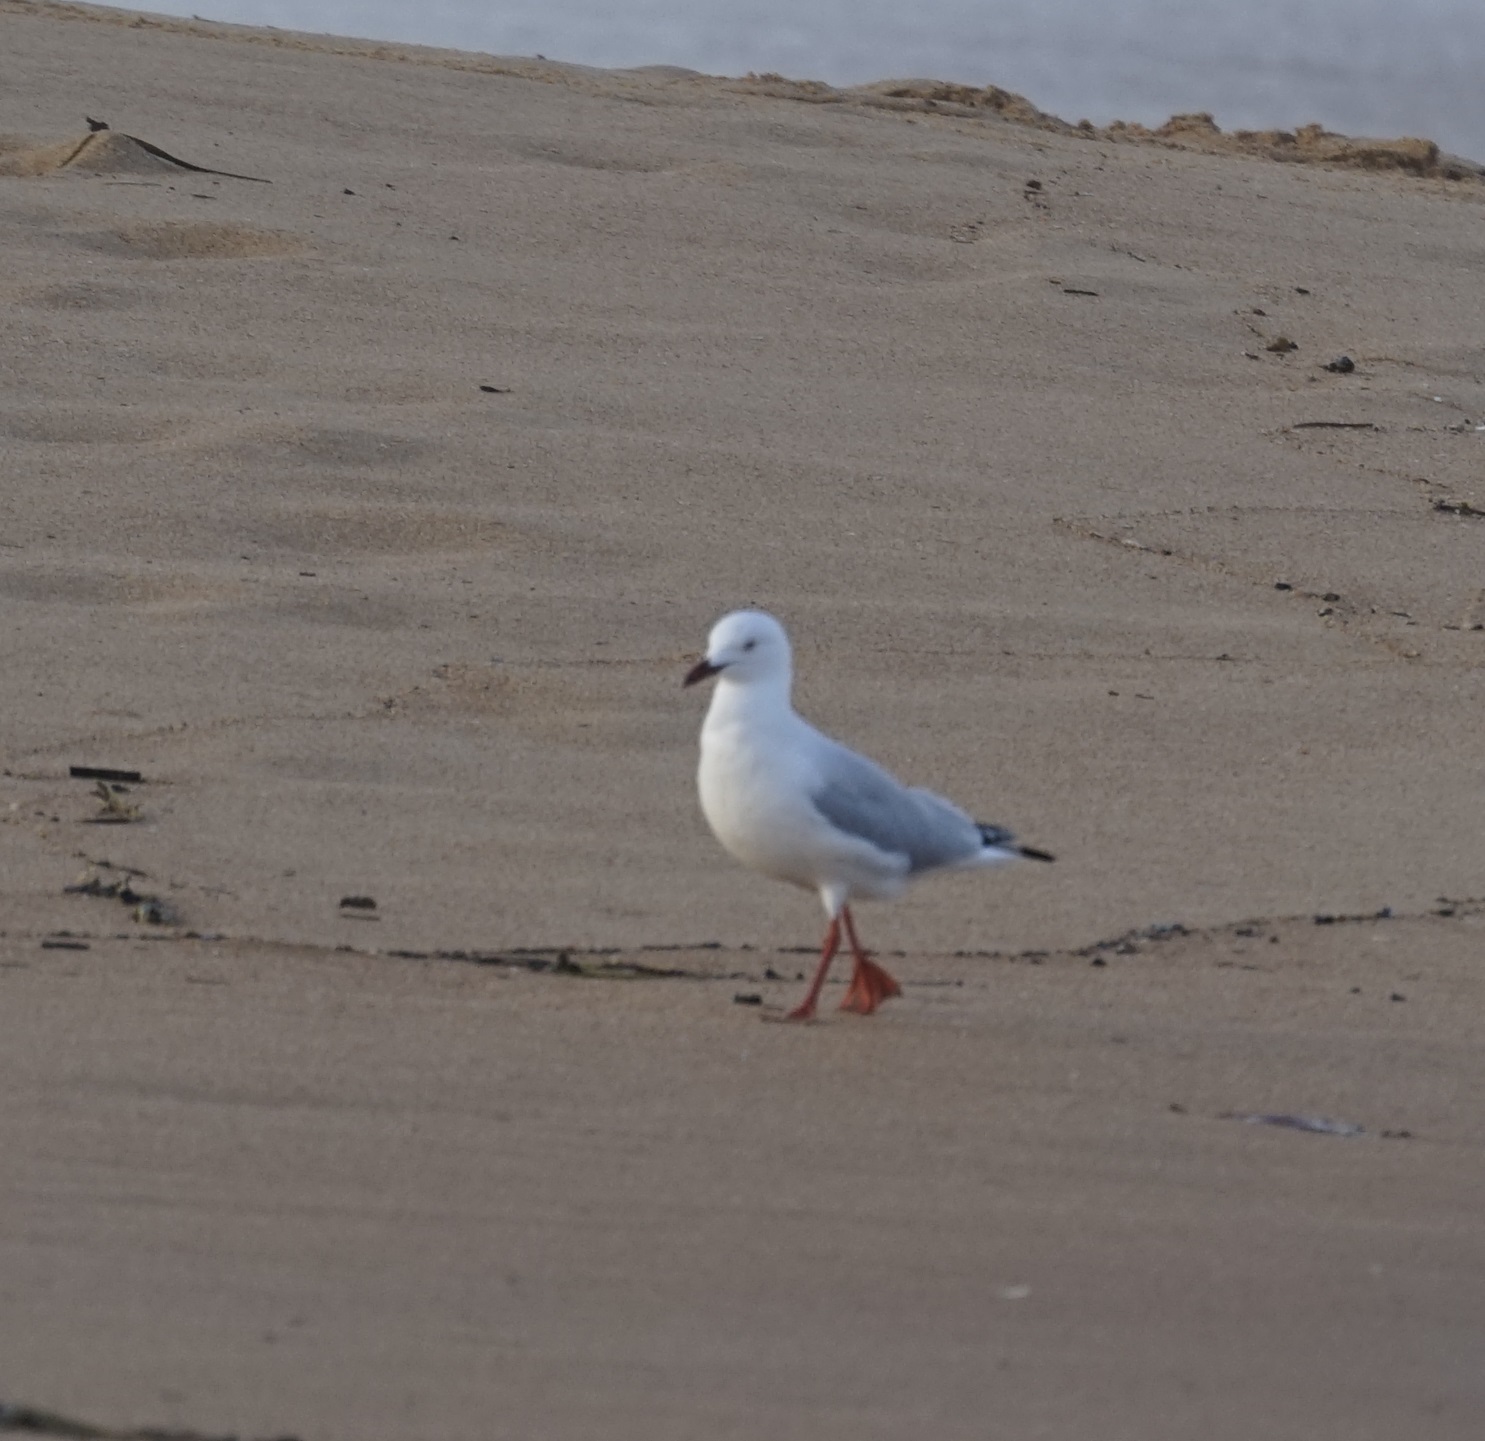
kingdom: Animalia
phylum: Chordata
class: Aves
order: Charadriiformes
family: Laridae
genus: Chroicocephalus
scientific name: Chroicocephalus novaehollandiae
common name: Silver gull
